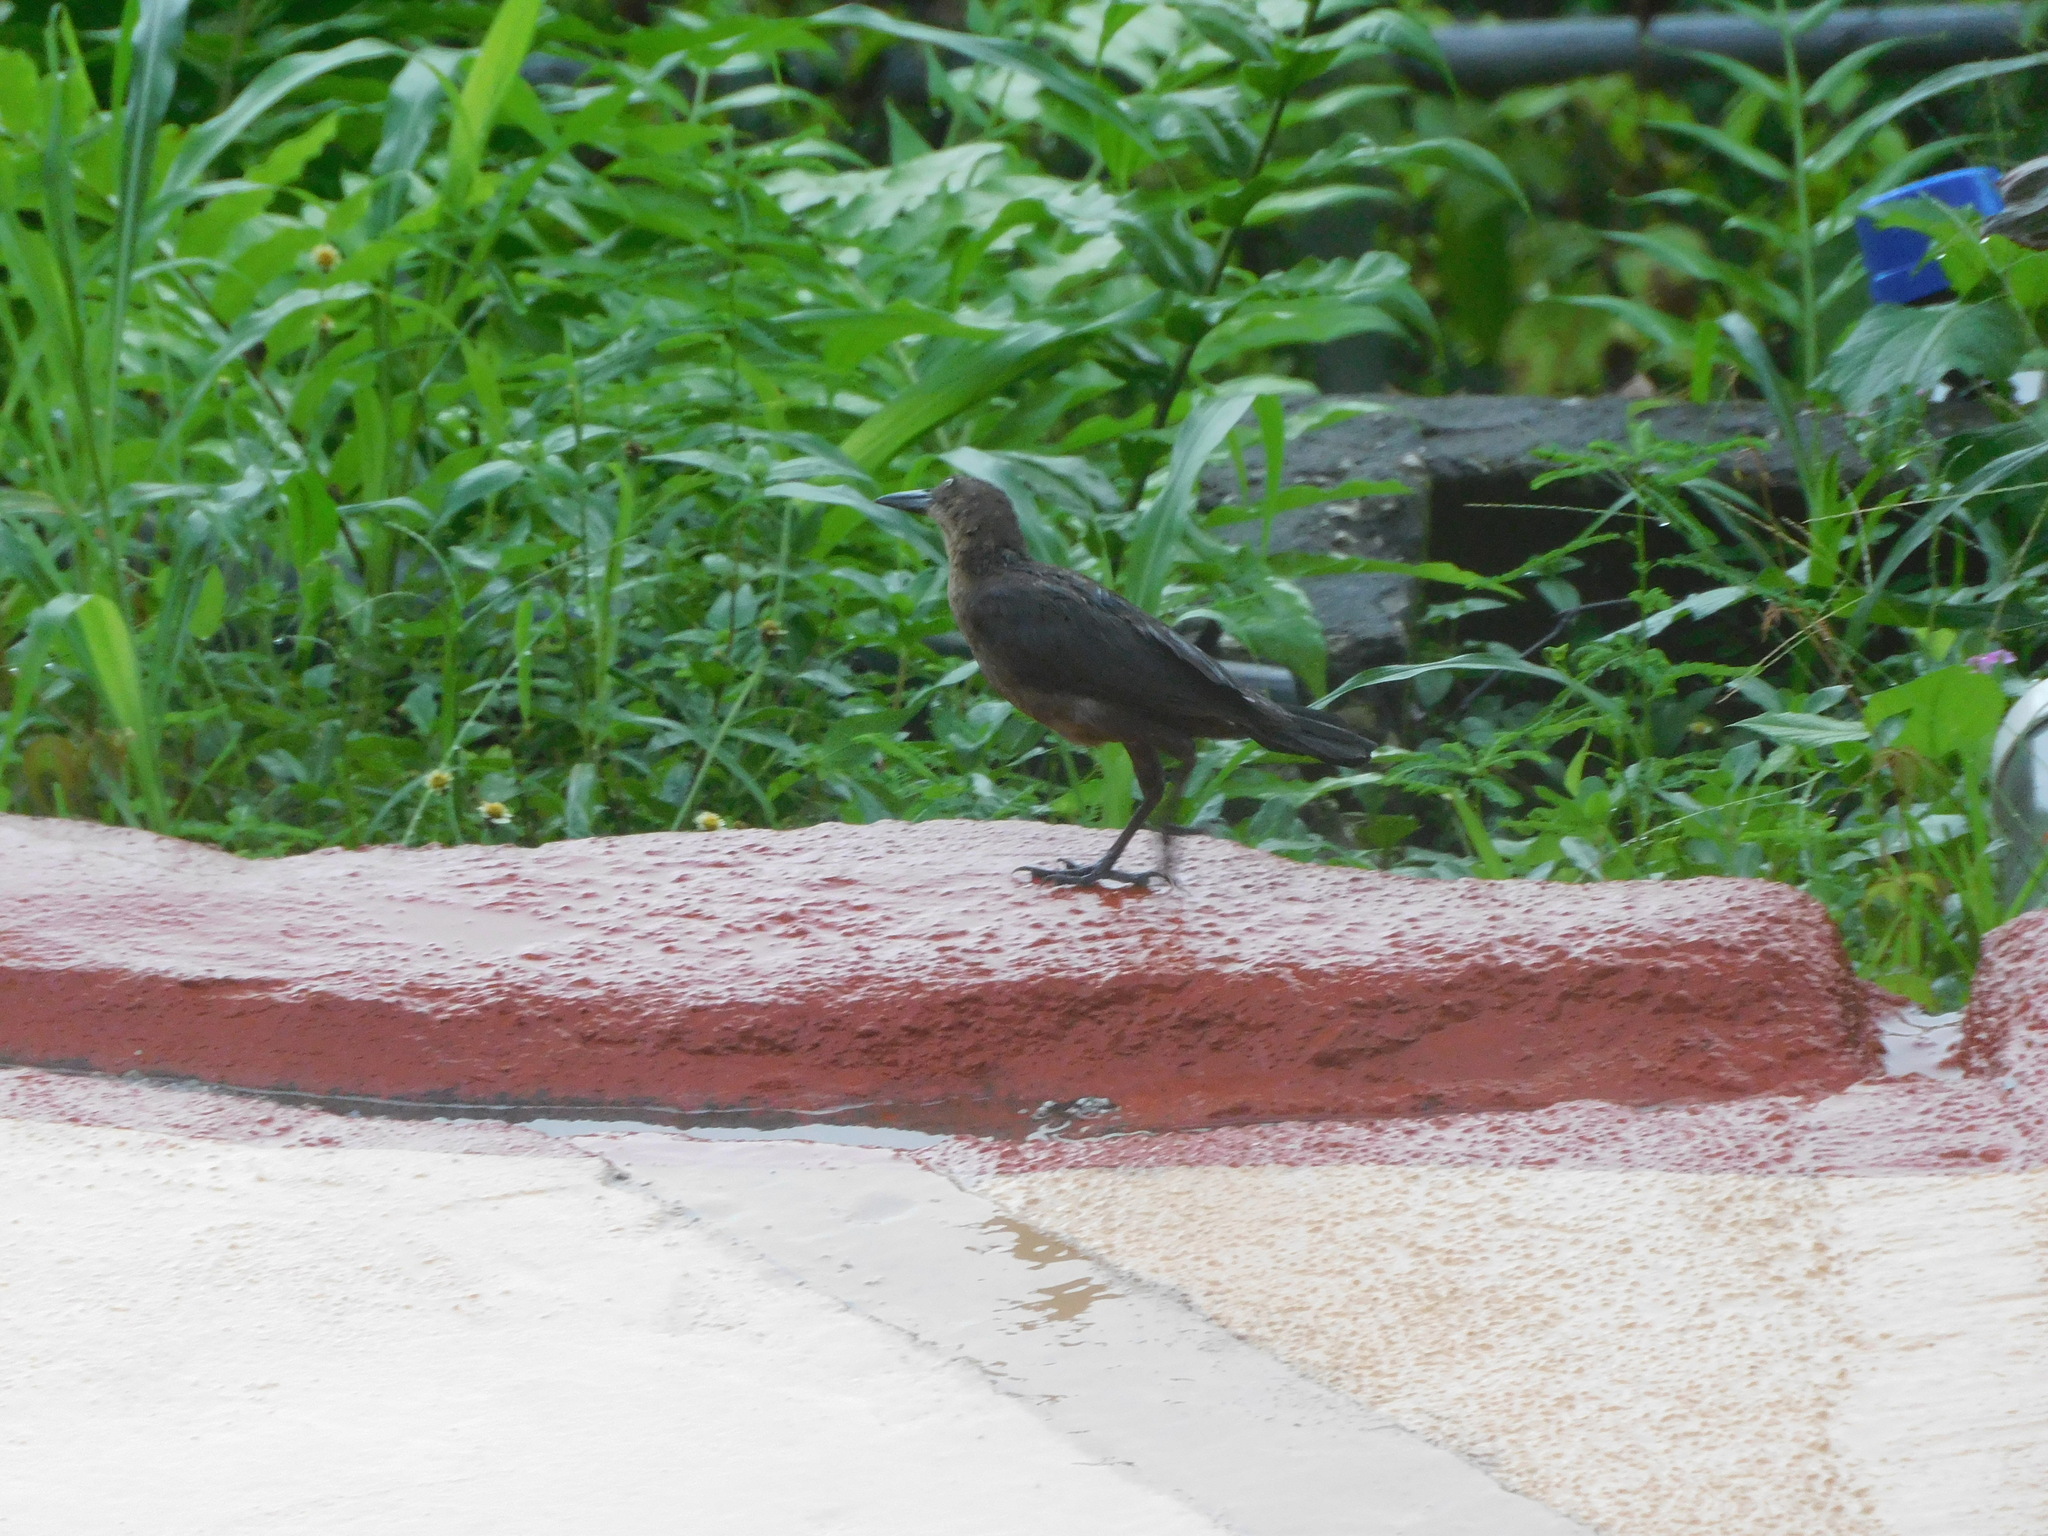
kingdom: Animalia
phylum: Chordata
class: Aves
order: Passeriformes
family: Icteridae
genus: Quiscalus
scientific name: Quiscalus mexicanus
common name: Great-tailed grackle
